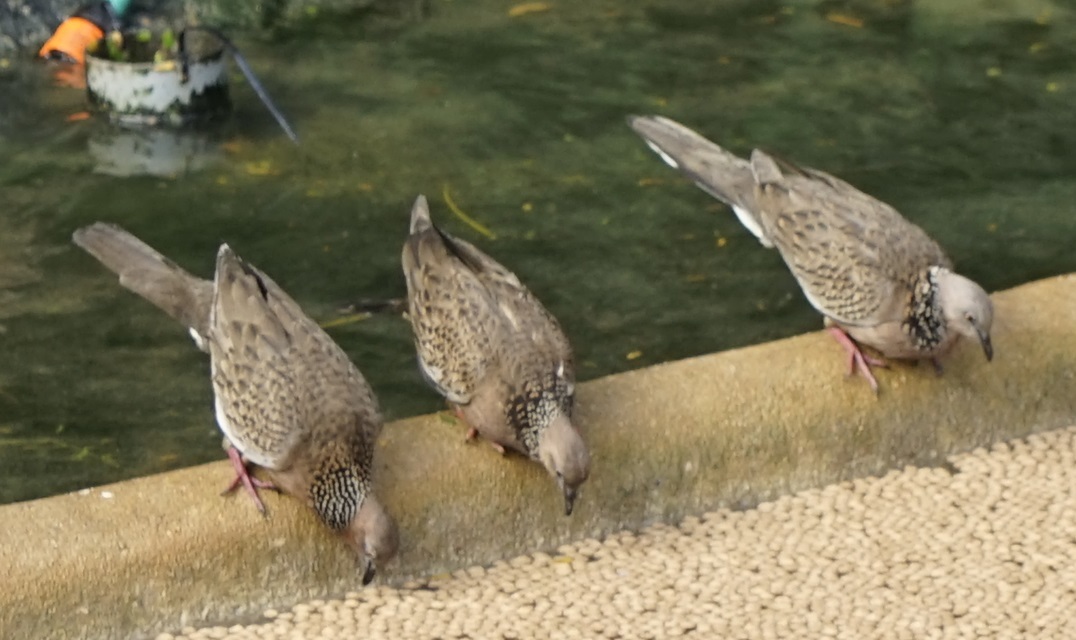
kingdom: Animalia
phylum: Chordata
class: Aves
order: Columbiformes
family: Columbidae
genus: Spilopelia
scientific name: Spilopelia chinensis
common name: Spotted dove
